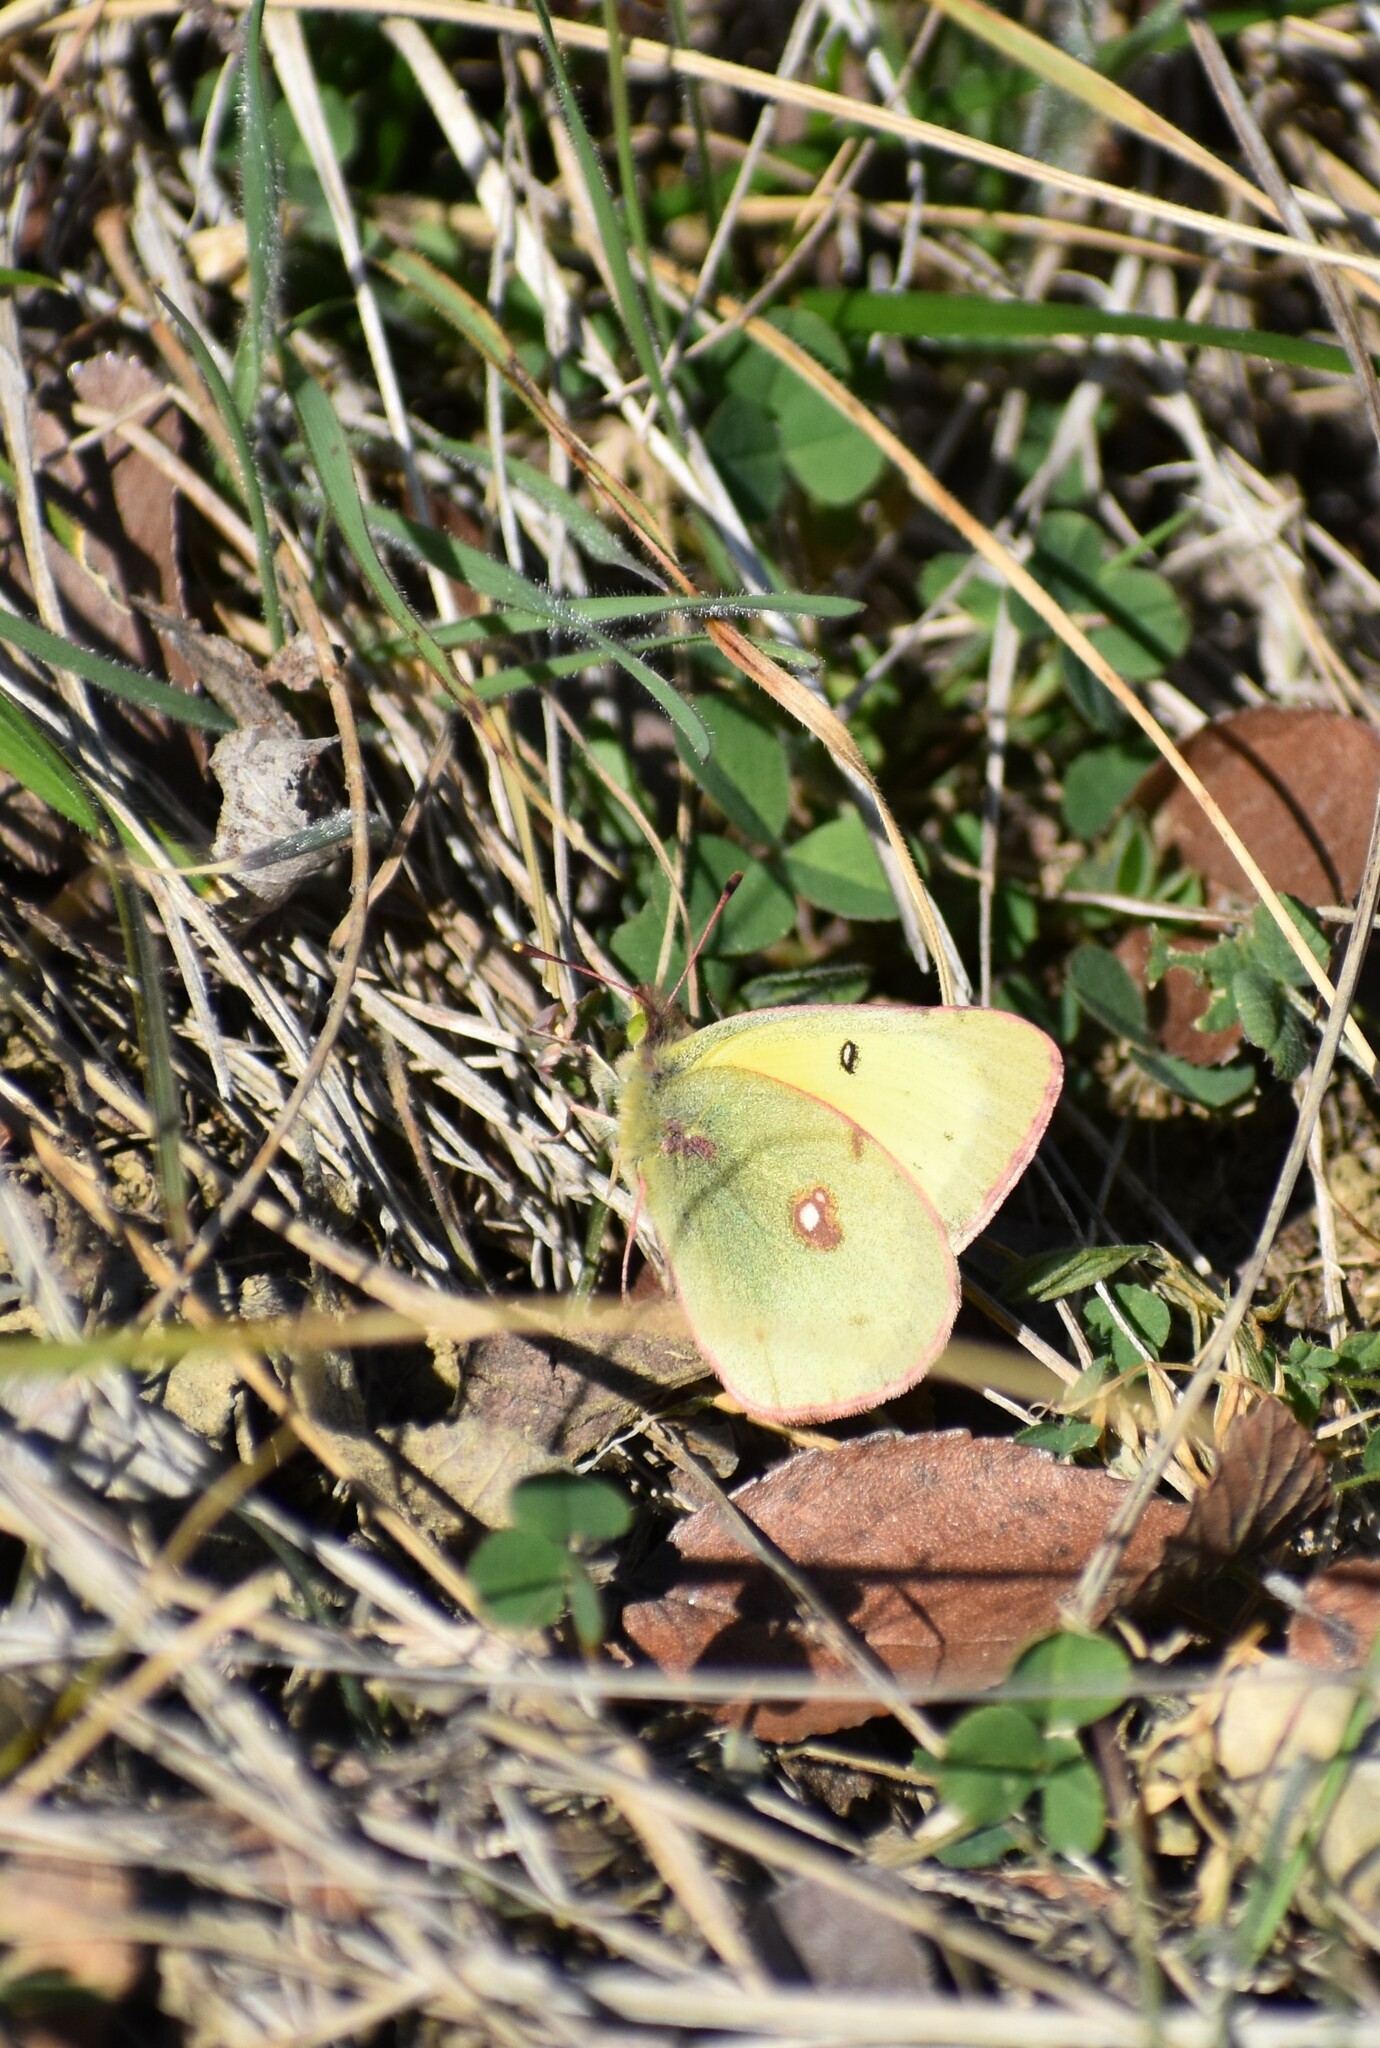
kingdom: Animalia
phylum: Arthropoda
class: Insecta
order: Lepidoptera
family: Pieridae
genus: Colias
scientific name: Colias eurytheme
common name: Alfalfa butterfly
